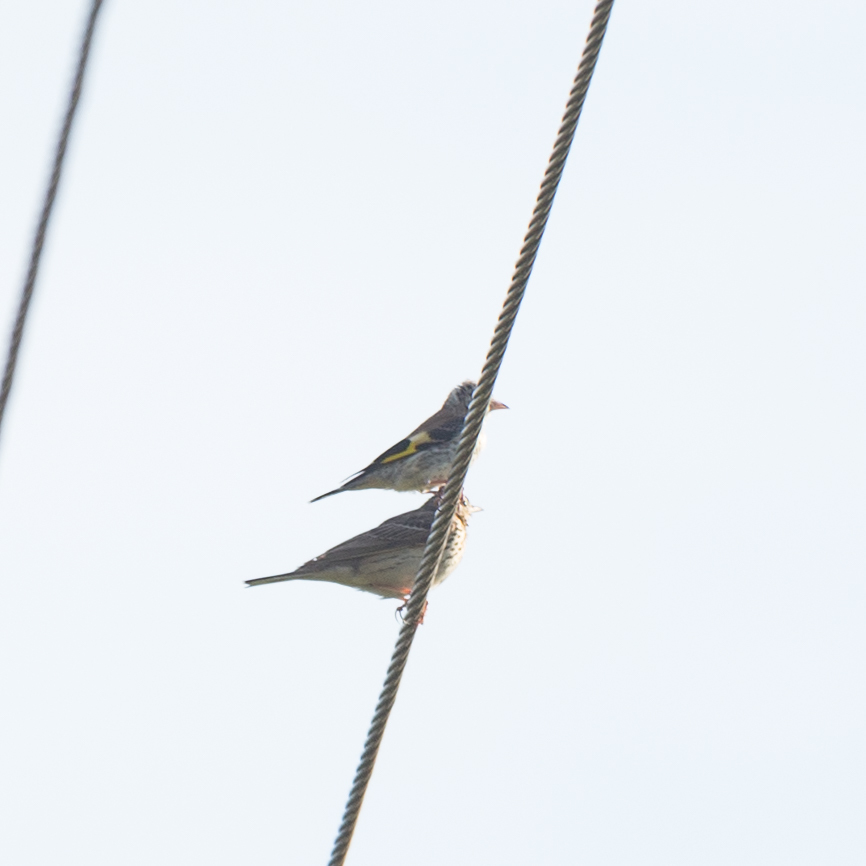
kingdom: Animalia
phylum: Chordata
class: Aves
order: Passeriformes
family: Fringillidae
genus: Carduelis
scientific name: Carduelis carduelis
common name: European goldfinch
